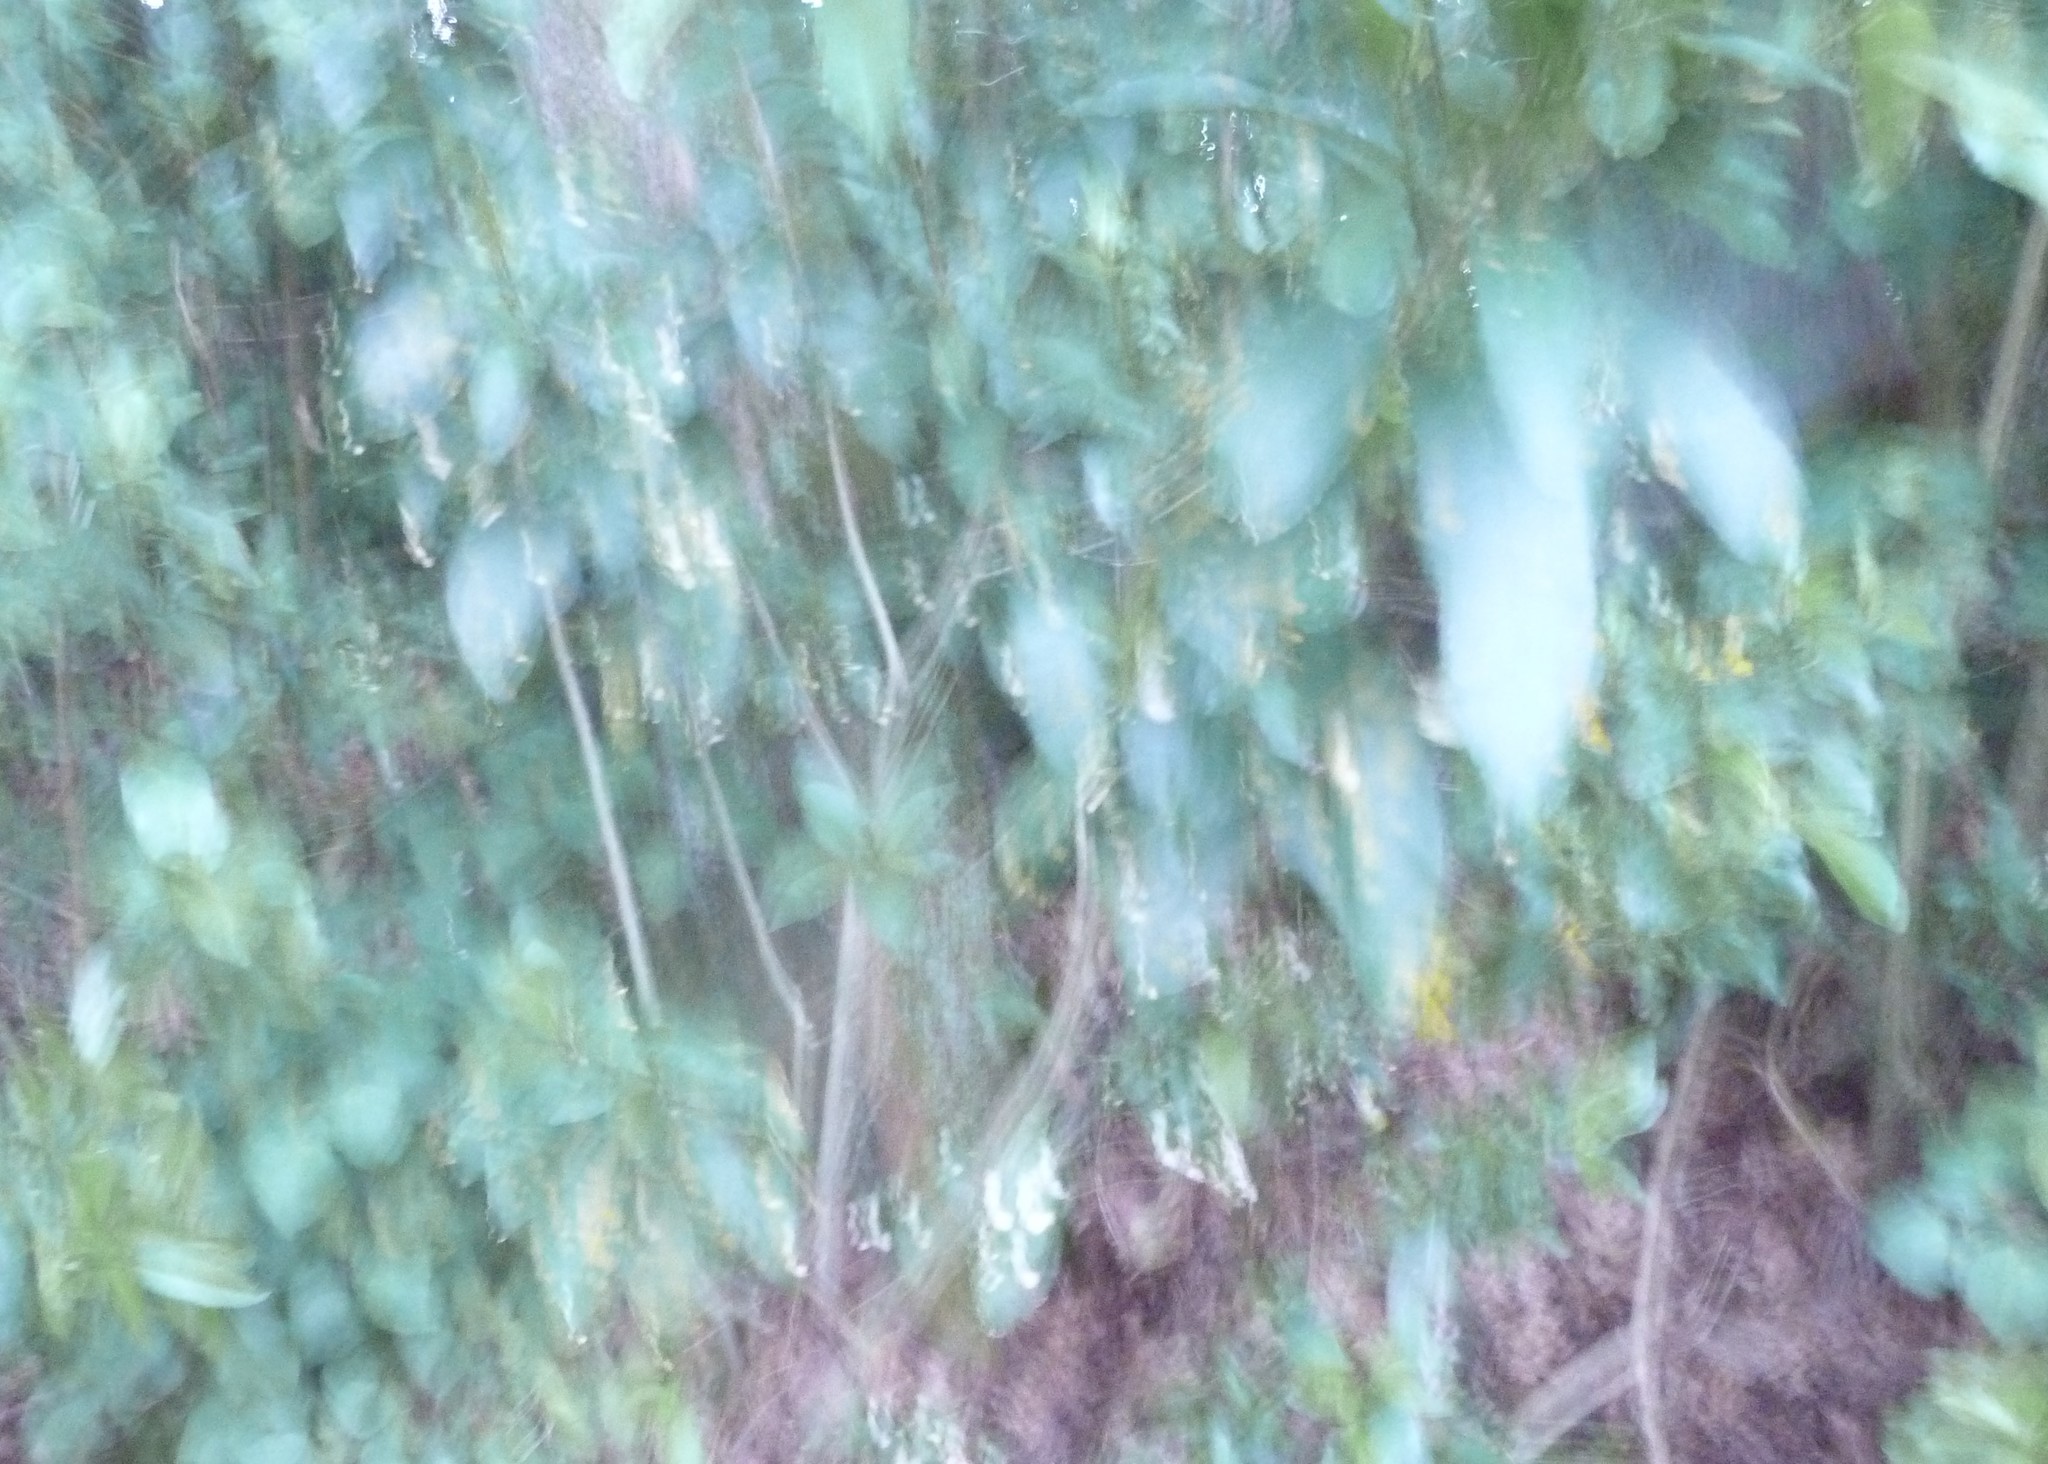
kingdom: Plantae
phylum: Tracheophyta
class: Magnoliopsida
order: Malpighiales
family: Violaceae
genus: Melicytus
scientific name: Melicytus ramiflorus
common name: Mahoe
